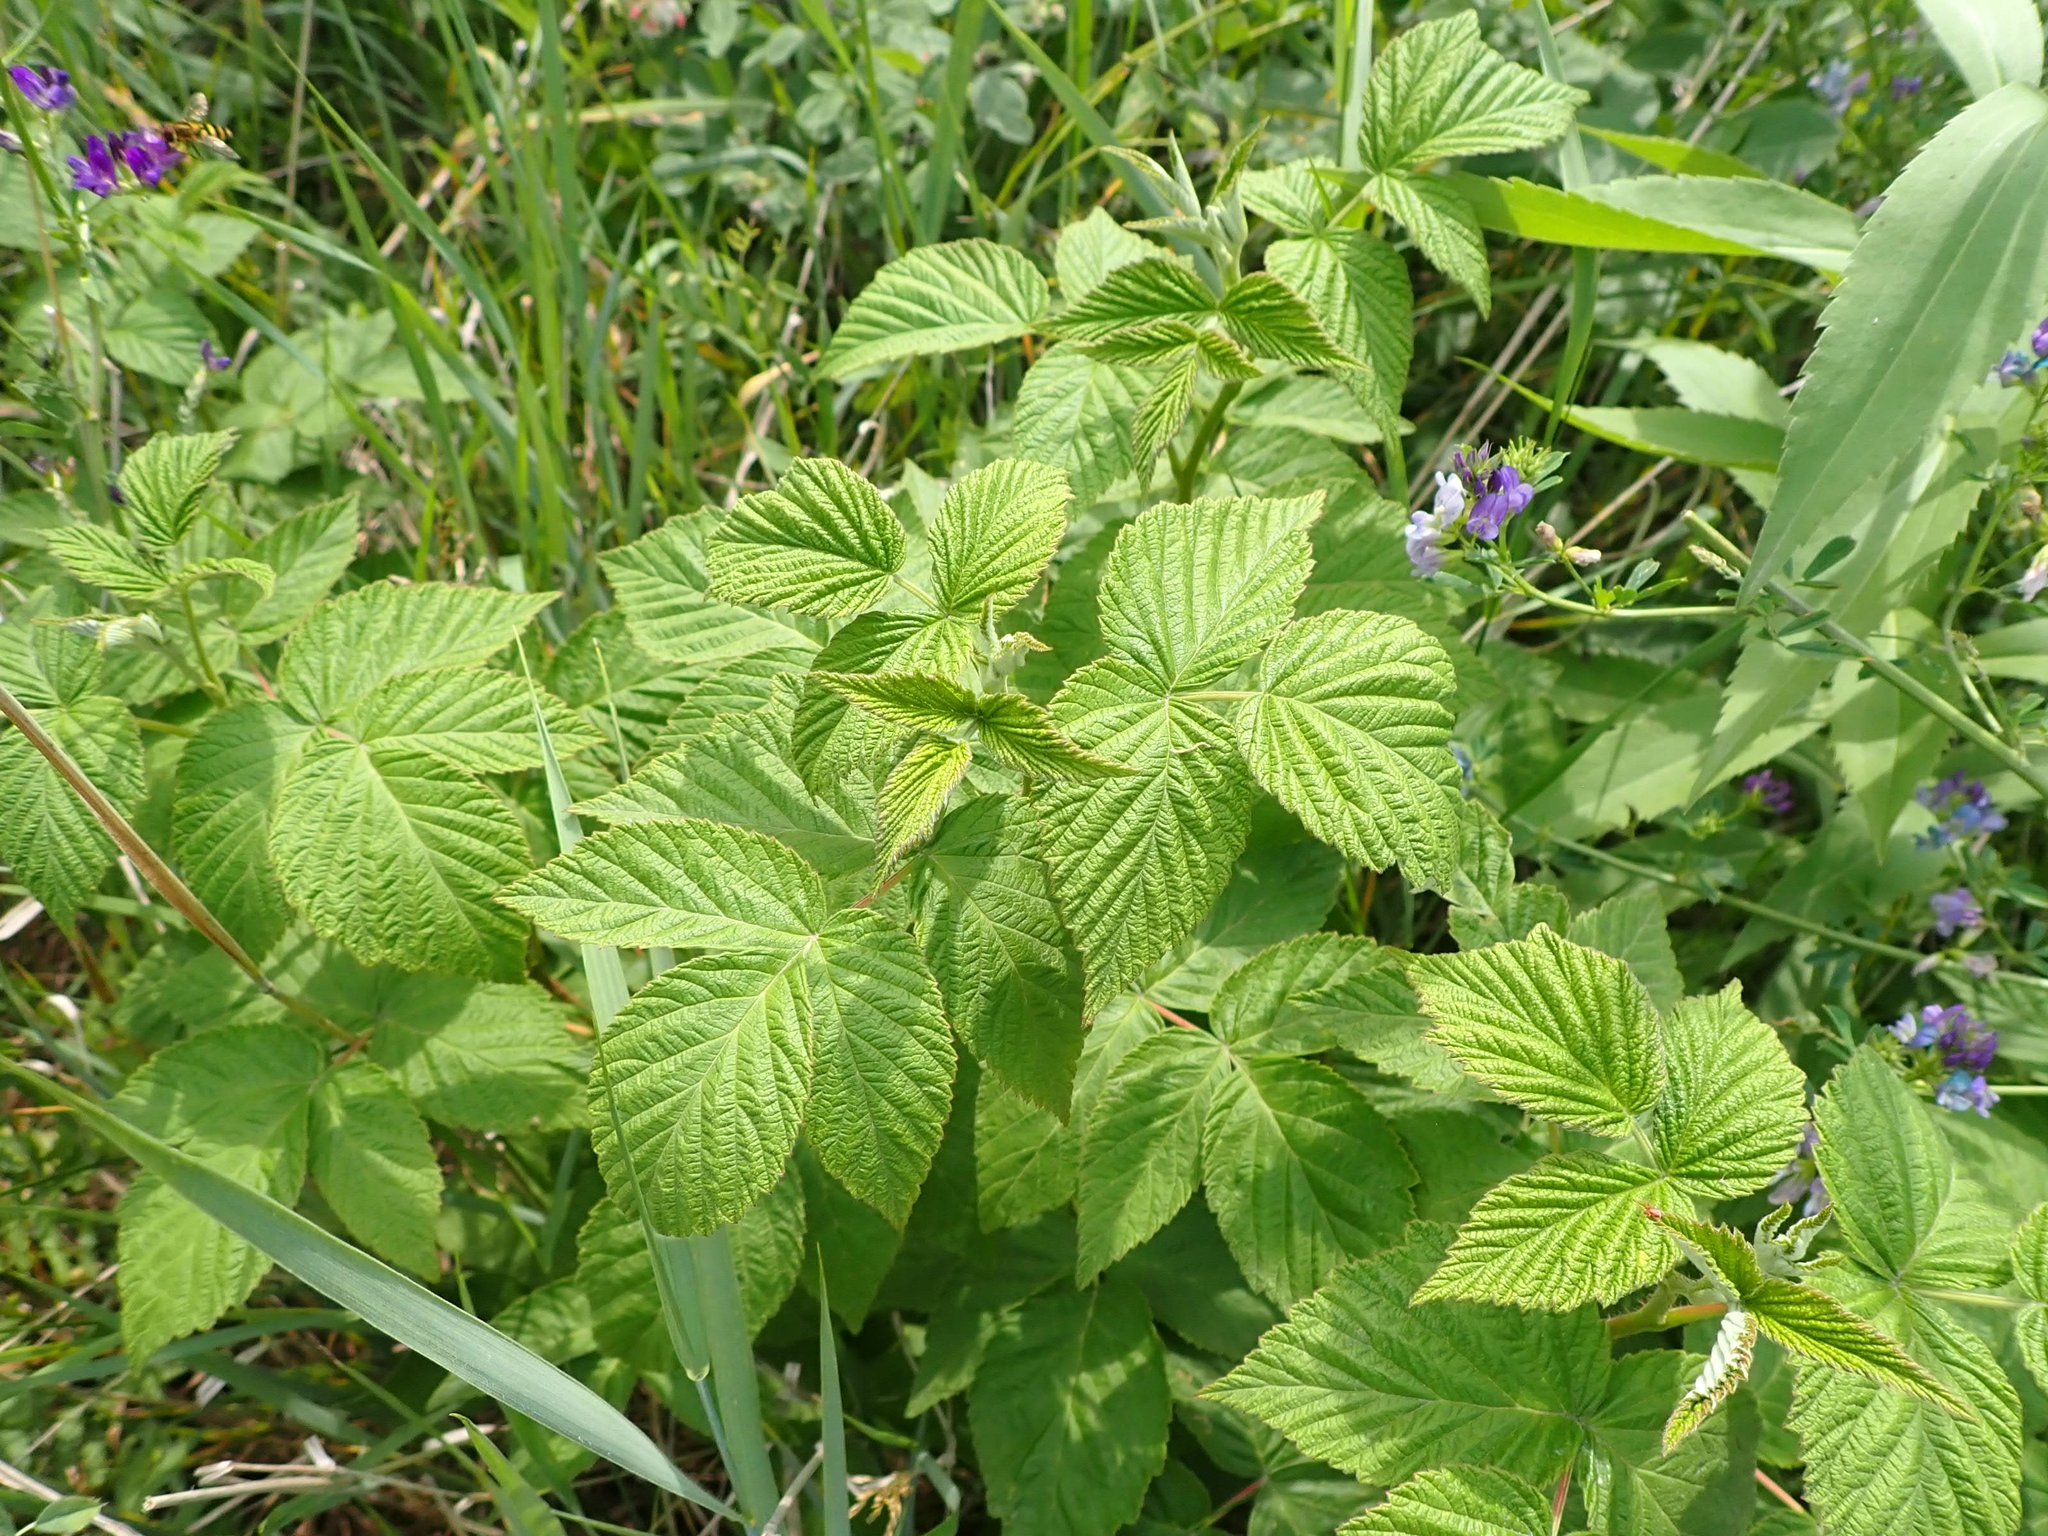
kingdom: Plantae
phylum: Tracheophyta
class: Magnoliopsida
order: Rosales
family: Rosaceae
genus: Rubus
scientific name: Rubus idaeus
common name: Raspberry
